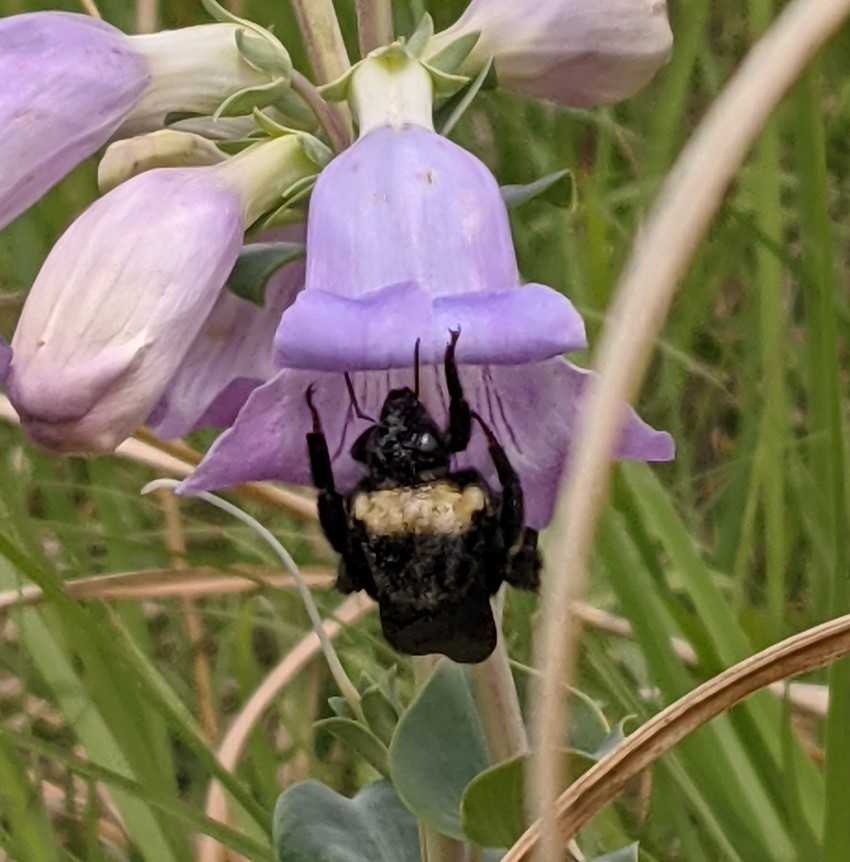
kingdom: Animalia
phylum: Arthropoda
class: Insecta
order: Hymenoptera
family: Apidae
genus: Bombus
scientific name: Bombus auricomus
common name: Black and gold bumble bee
